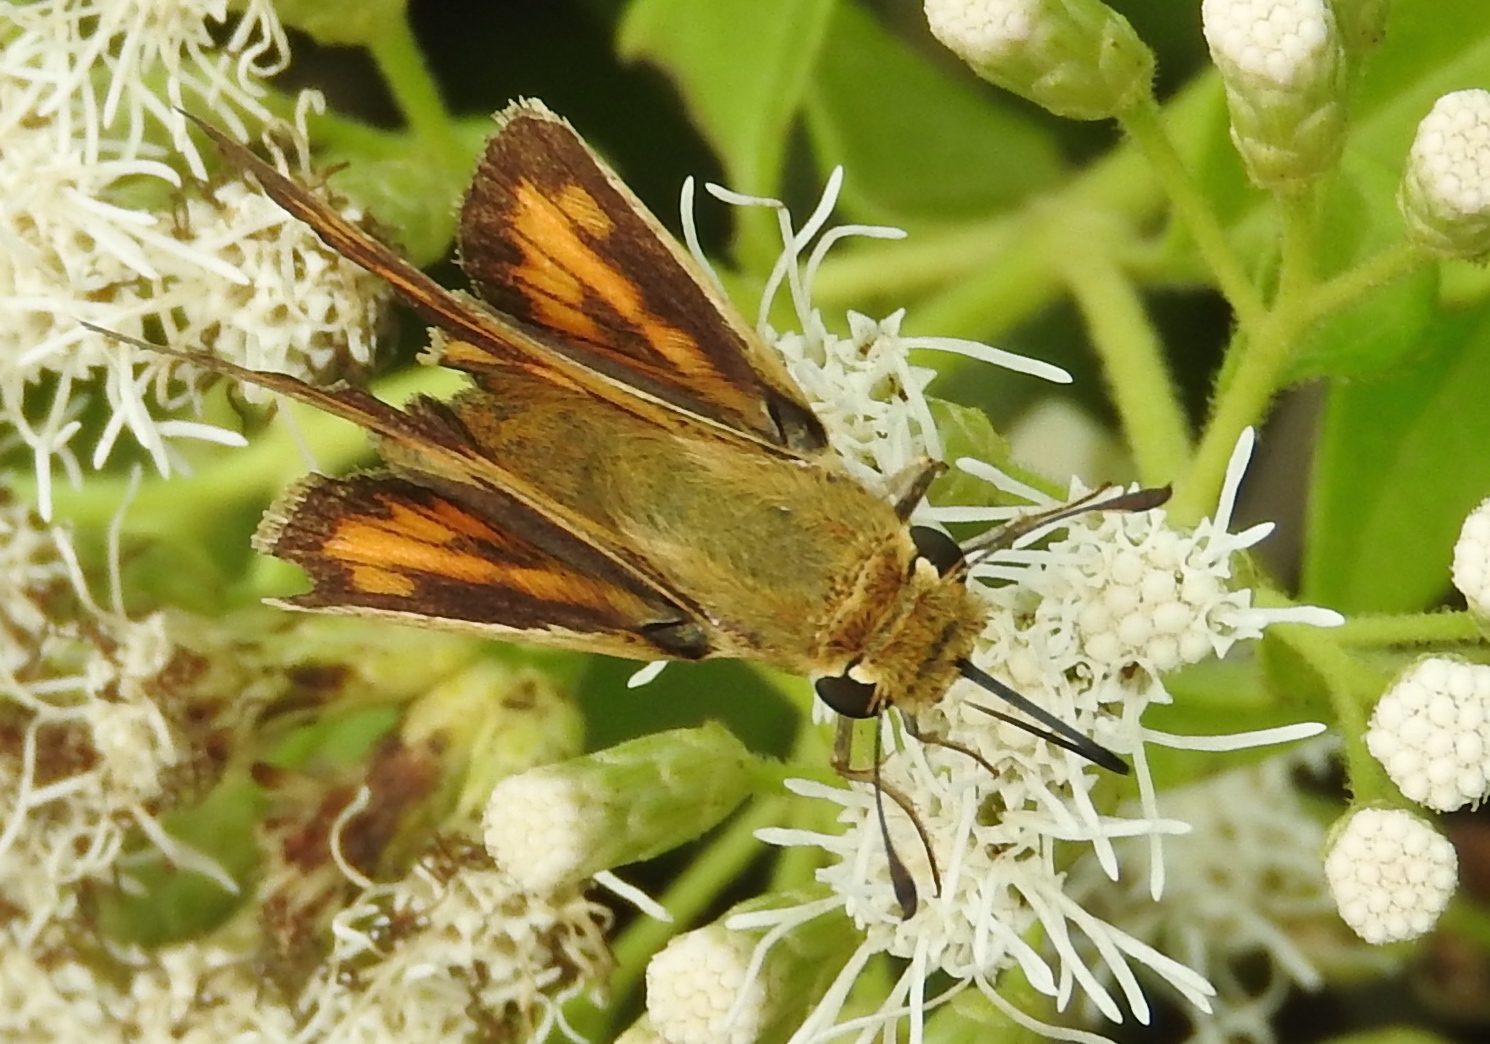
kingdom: Animalia
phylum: Arthropoda
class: Insecta
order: Lepidoptera
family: Hesperiidae
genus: Hylephila
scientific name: Hylephila
